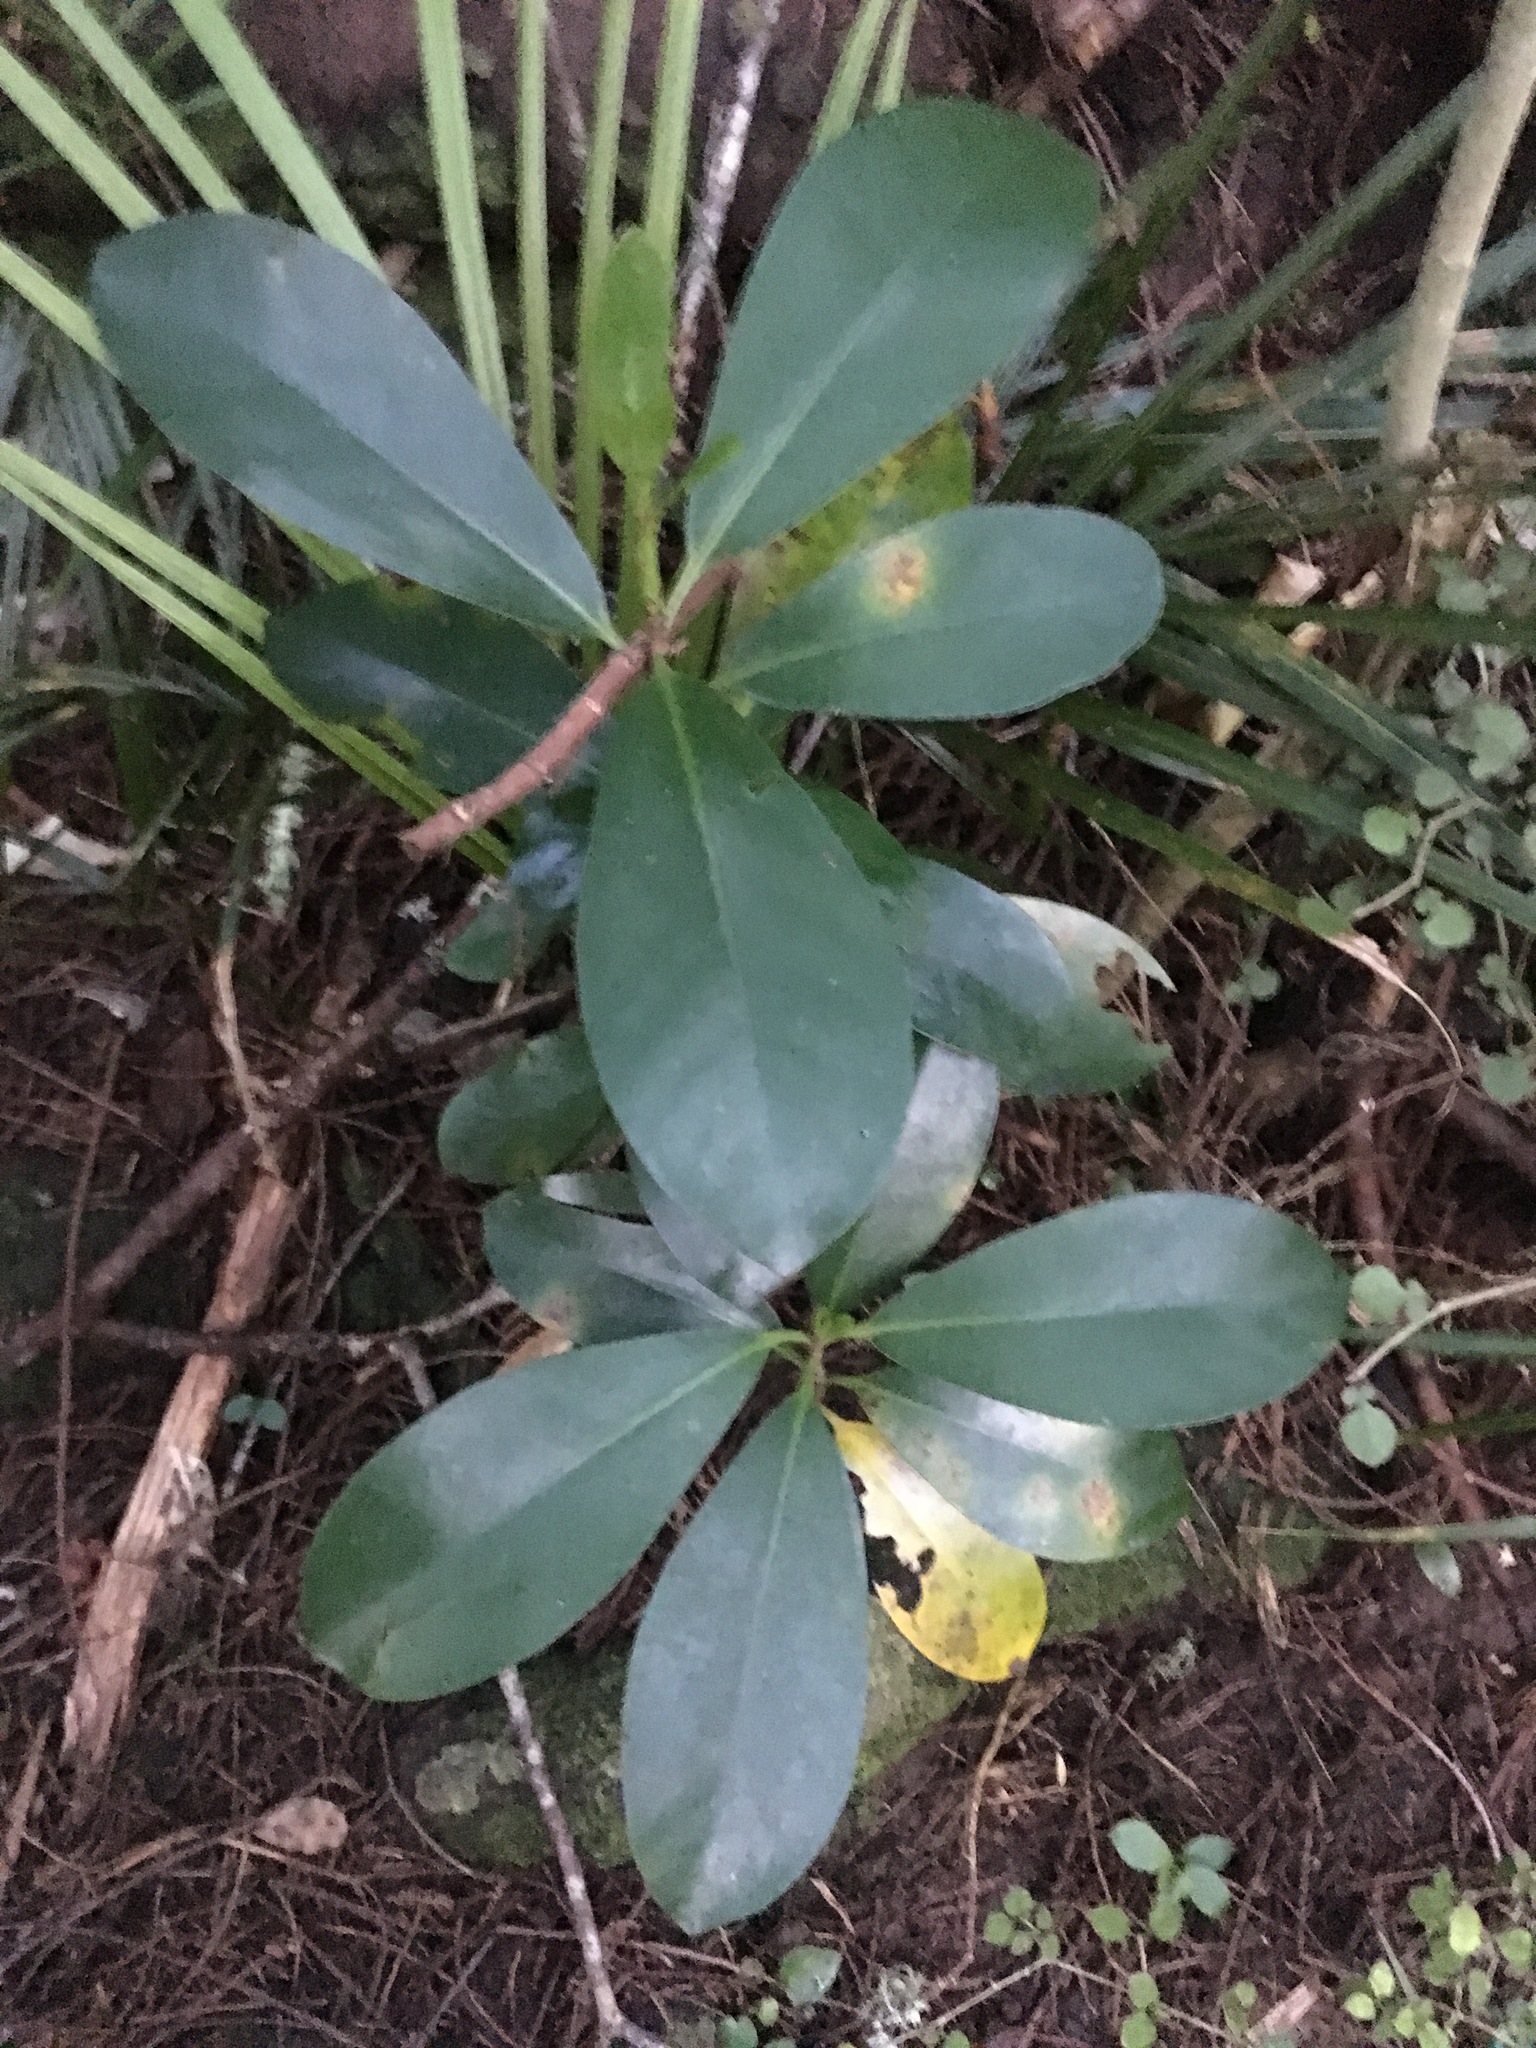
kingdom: Plantae
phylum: Tracheophyta
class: Magnoliopsida
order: Cucurbitales
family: Corynocarpaceae
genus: Corynocarpus
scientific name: Corynocarpus laevigatus
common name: New zealand laurel
